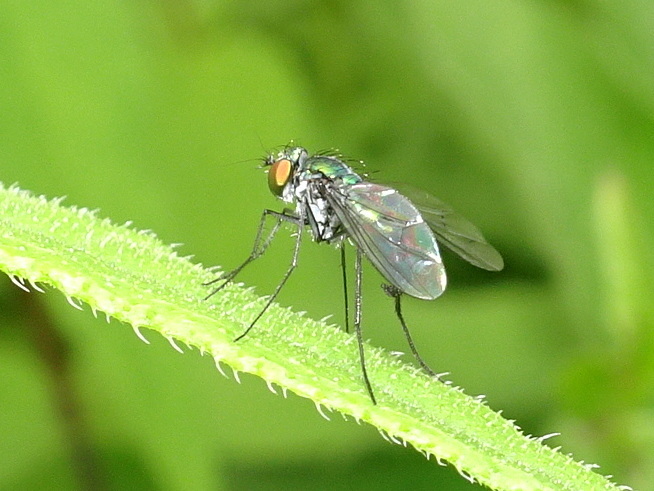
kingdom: Animalia
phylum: Arthropoda
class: Insecta
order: Diptera
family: Dolichopodidae
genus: Condylostylus
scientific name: Condylostylus patibulatus
